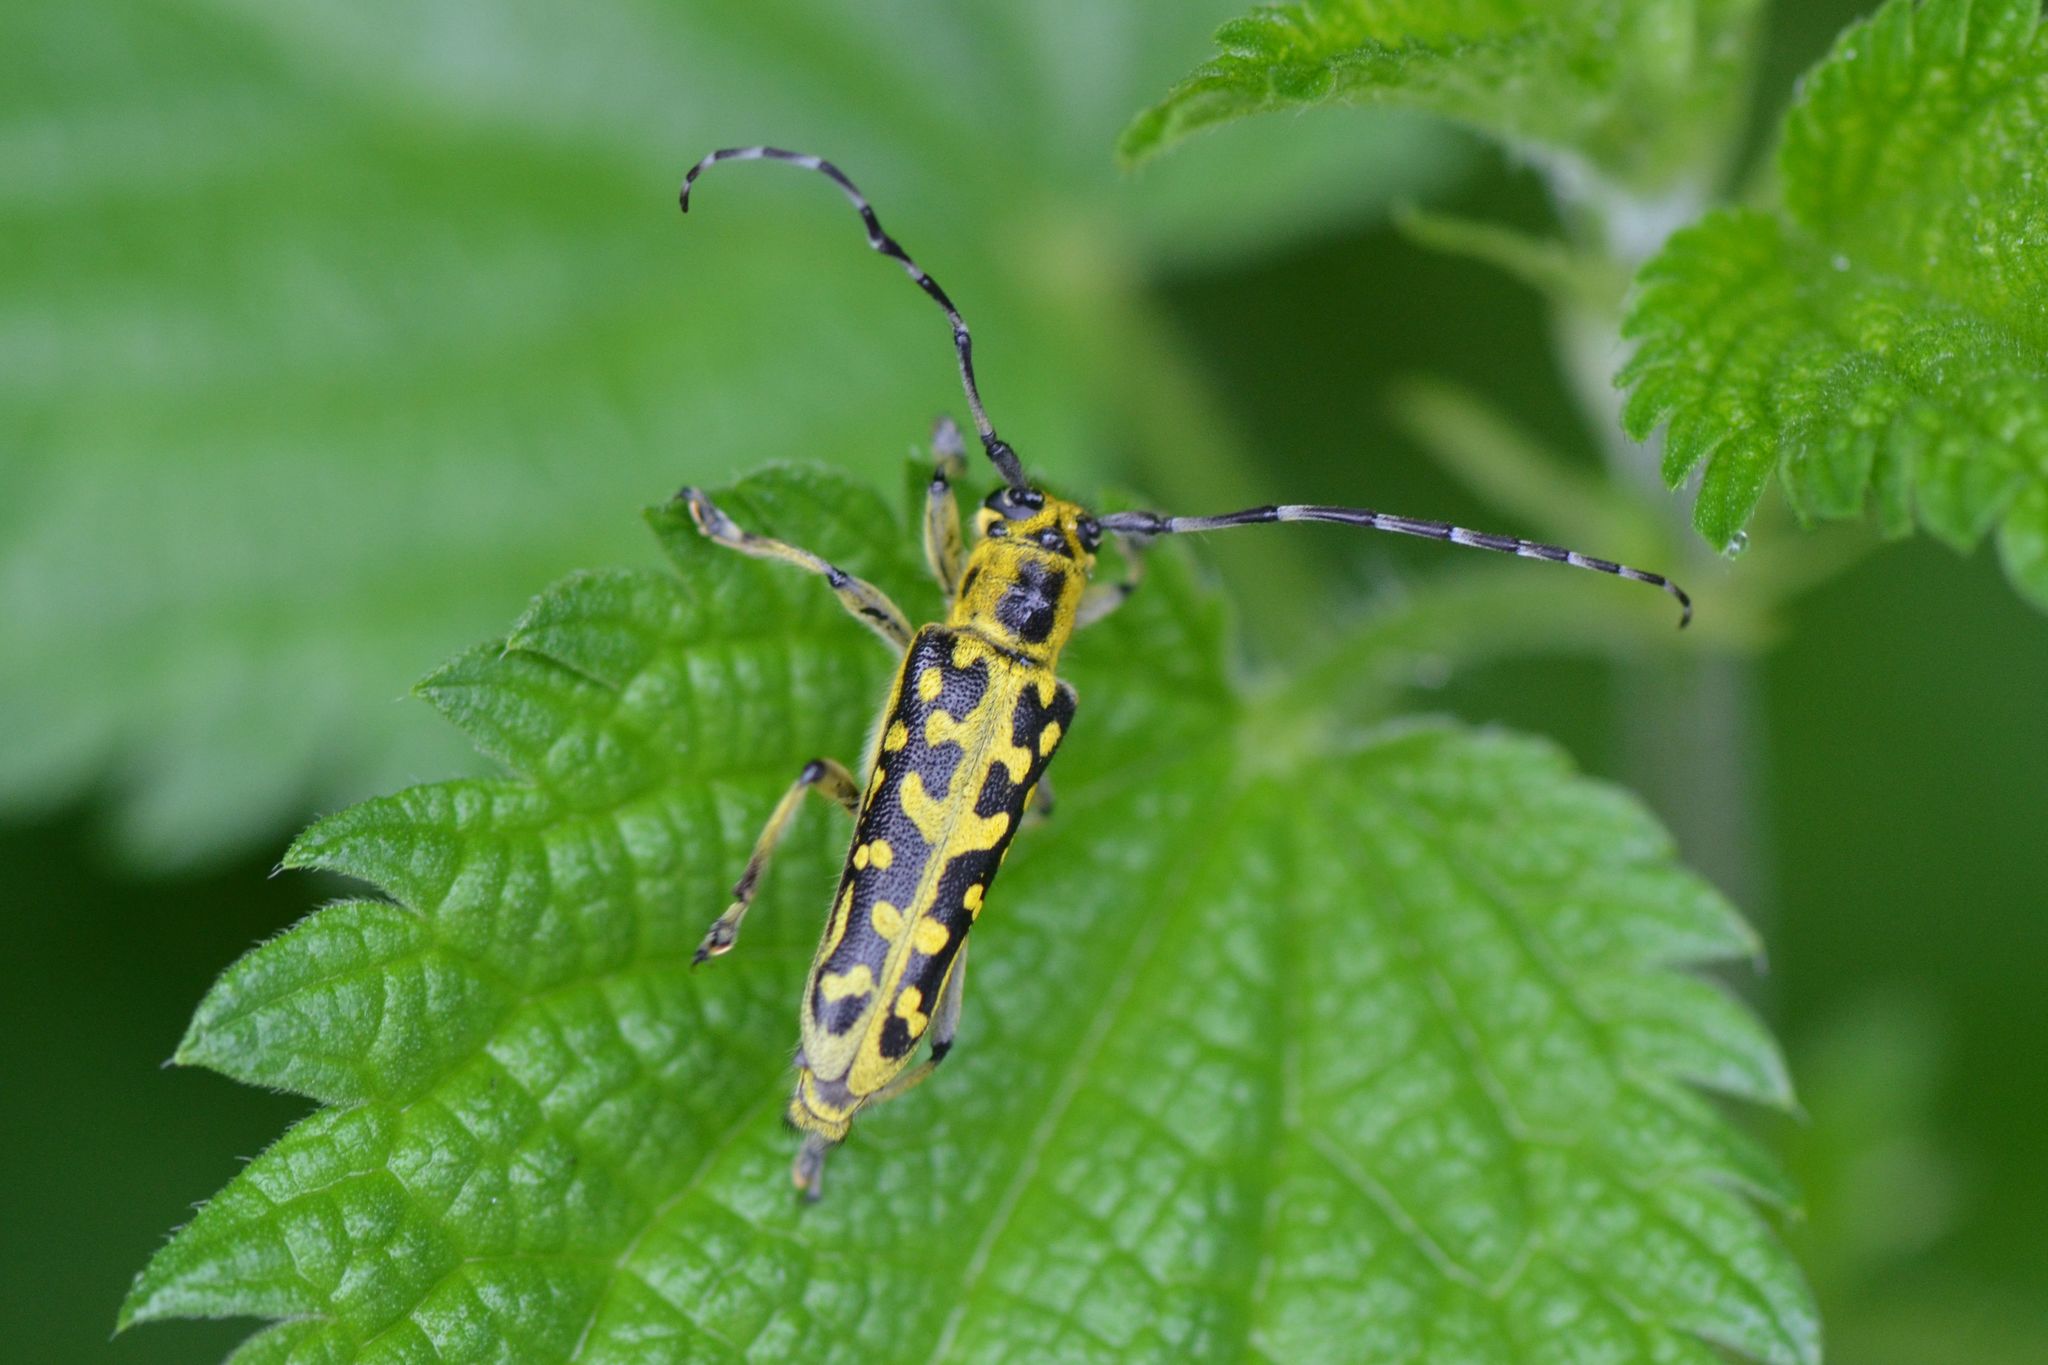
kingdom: Animalia
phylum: Arthropoda
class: Insecta
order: Coleoptera
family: Cerambycidae
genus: Saperda
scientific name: Saperda scalaris
